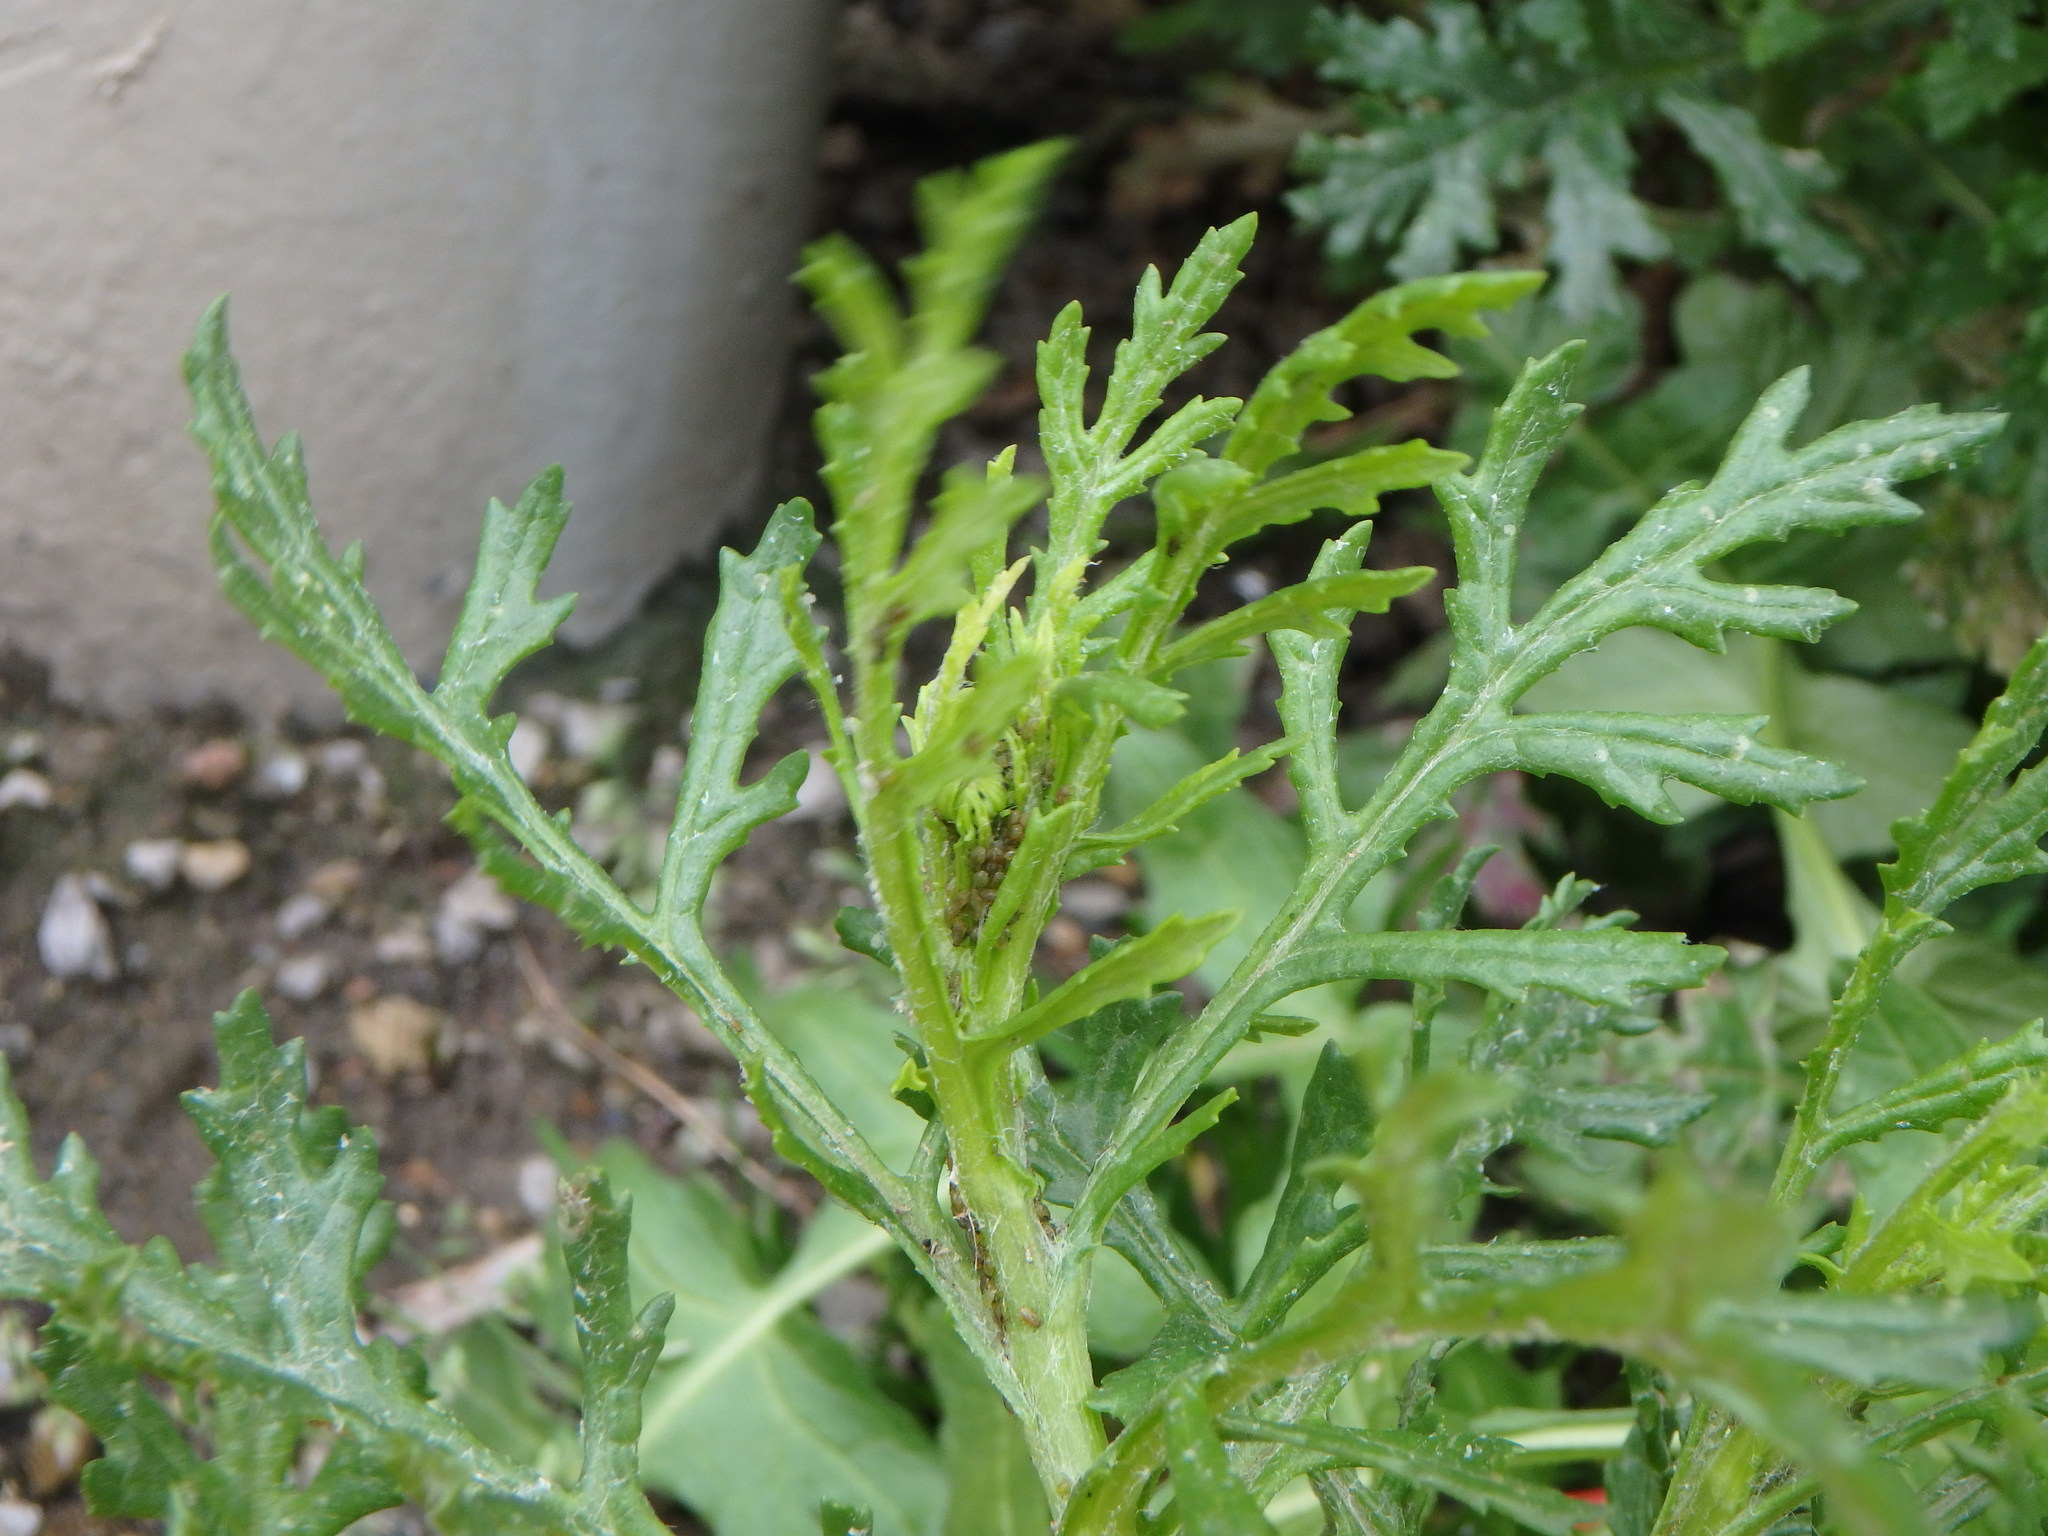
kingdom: Plantae
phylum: Tracheophyta
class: Magnoliopsida
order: Asterales
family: Asteraceae
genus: Senecio
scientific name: Senecio squalidus
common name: Oxford ragwort
